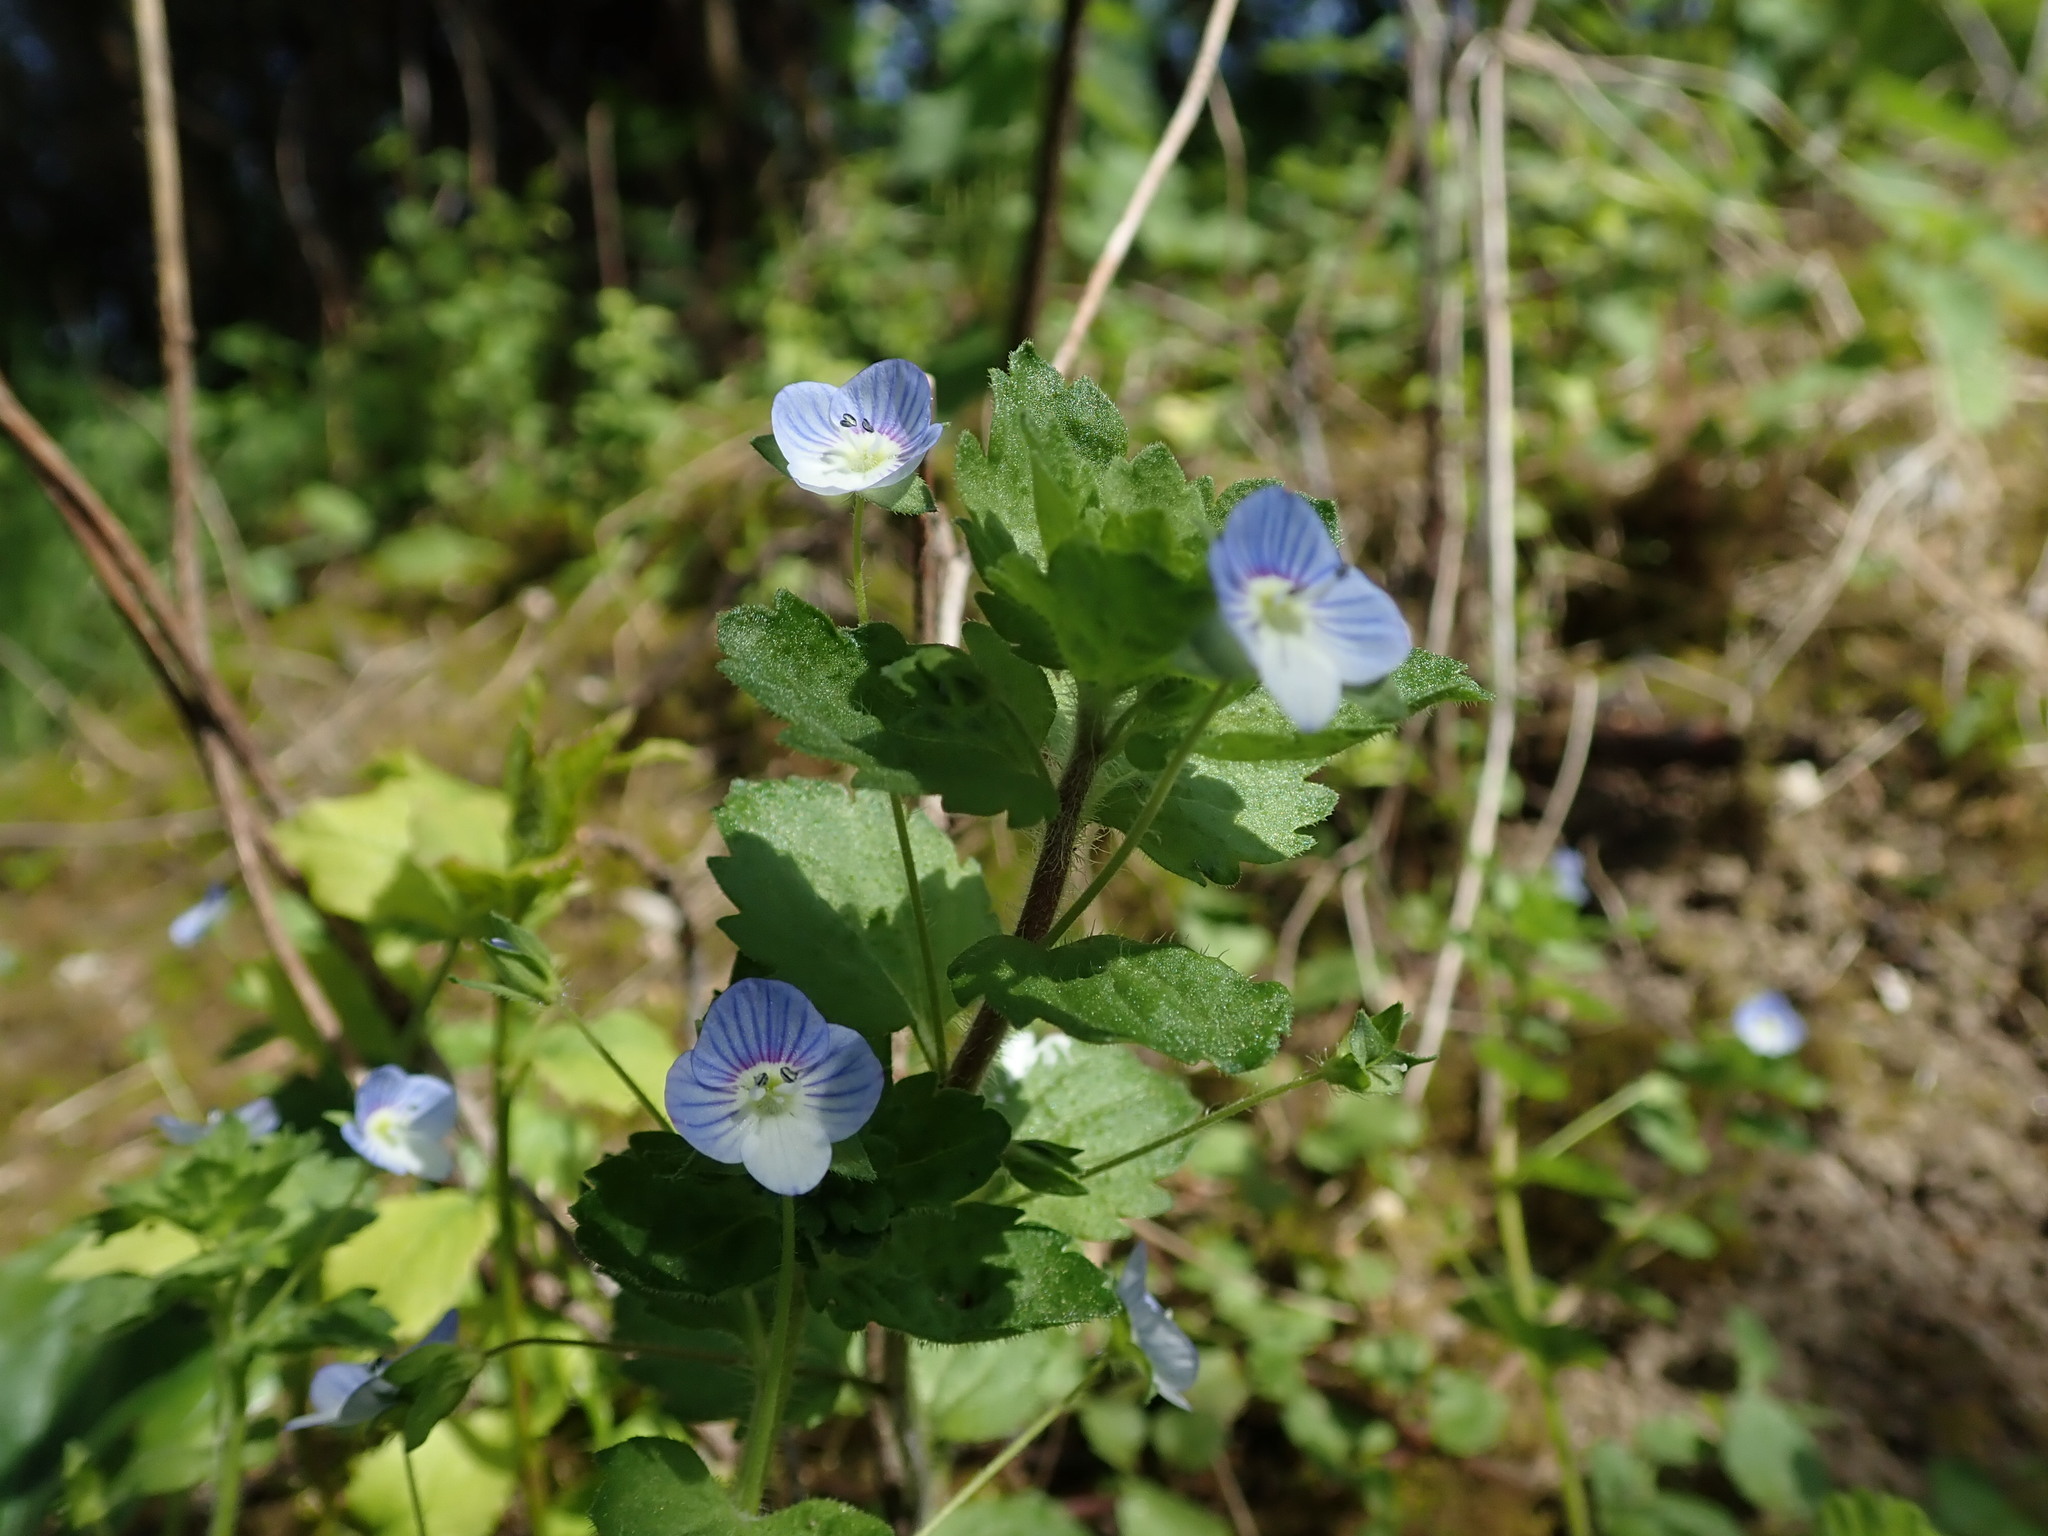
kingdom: Plantae
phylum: Tracheophyta
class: Magnoliopsida
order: Lamiales
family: Plantaginaceae
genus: Veronica
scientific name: Veronica persica
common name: Common field-speedwell
